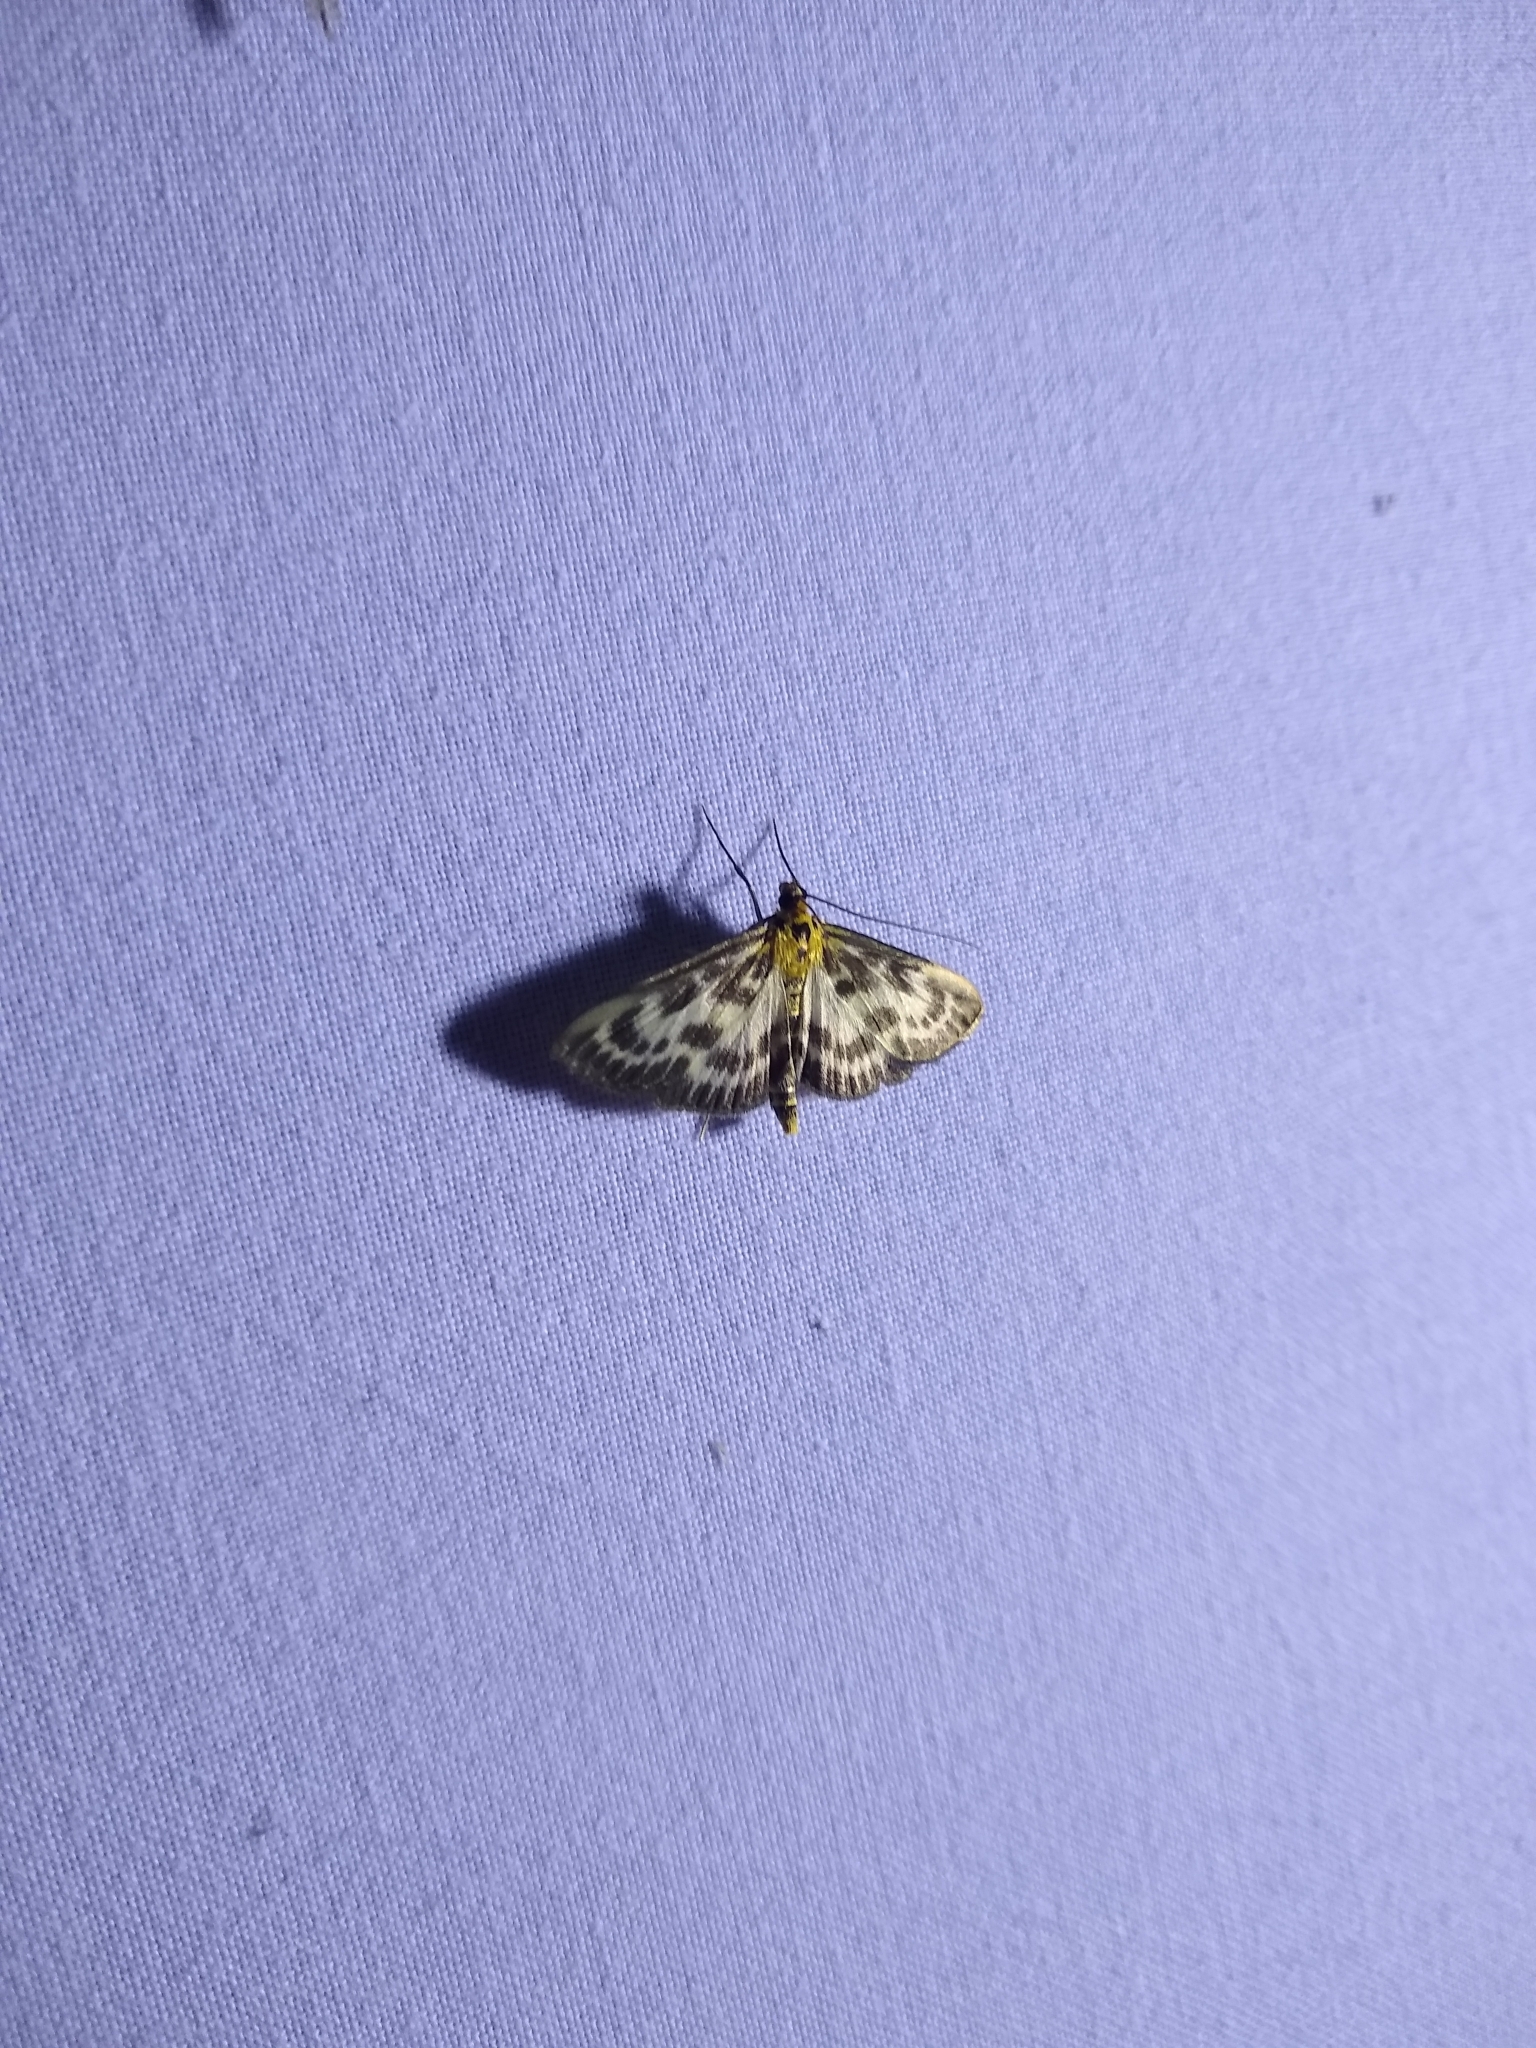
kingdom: Animalia
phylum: Arthropoda
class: Insecta
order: Lepidoptera
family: Crambidae
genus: Anania
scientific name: Anania hortulata
